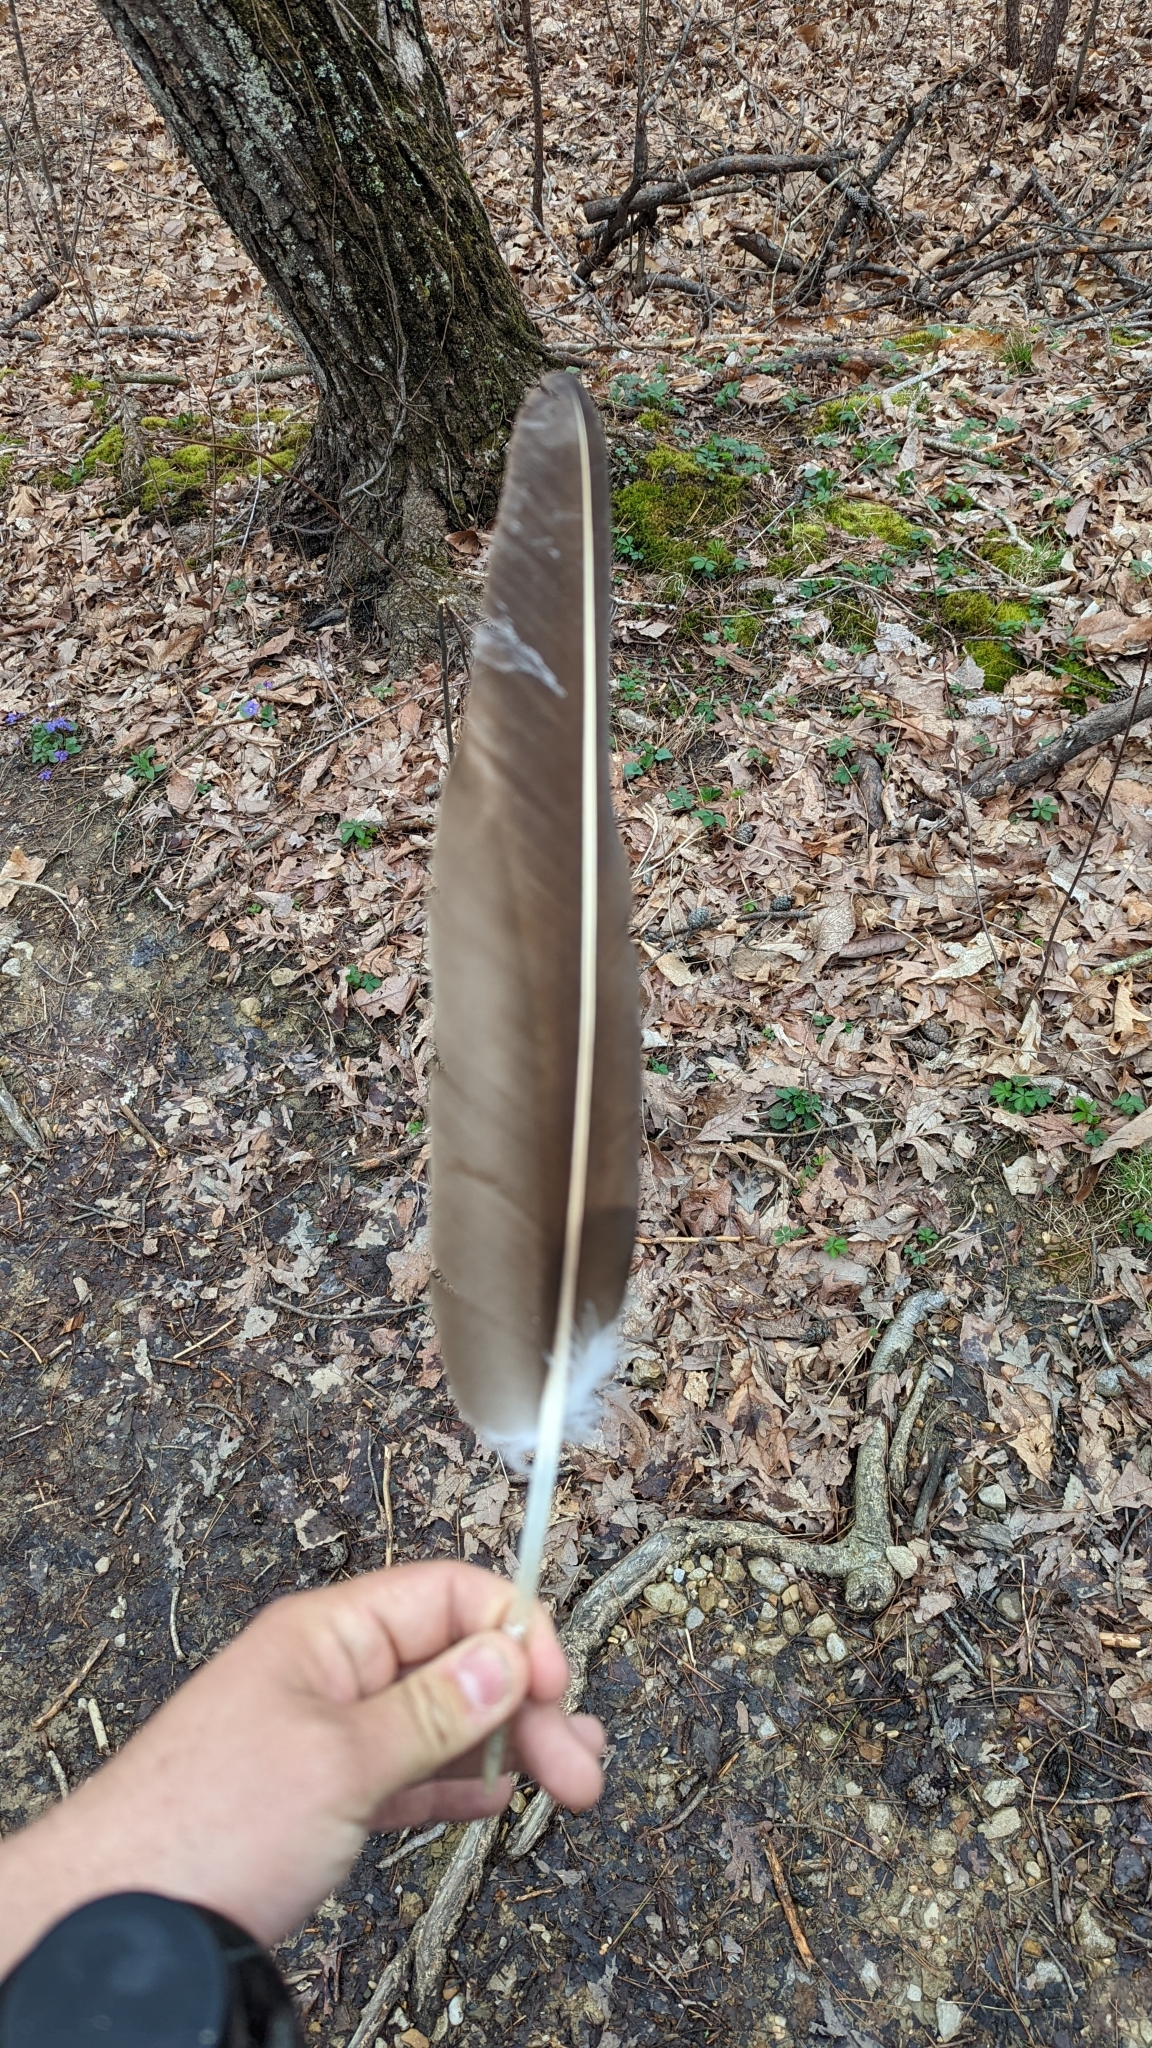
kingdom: Animalia
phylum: Chordata
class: Aves
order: Accipitriformes
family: Cathartidae
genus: Cathartes
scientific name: Cathartes aura
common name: Turkey vulture
